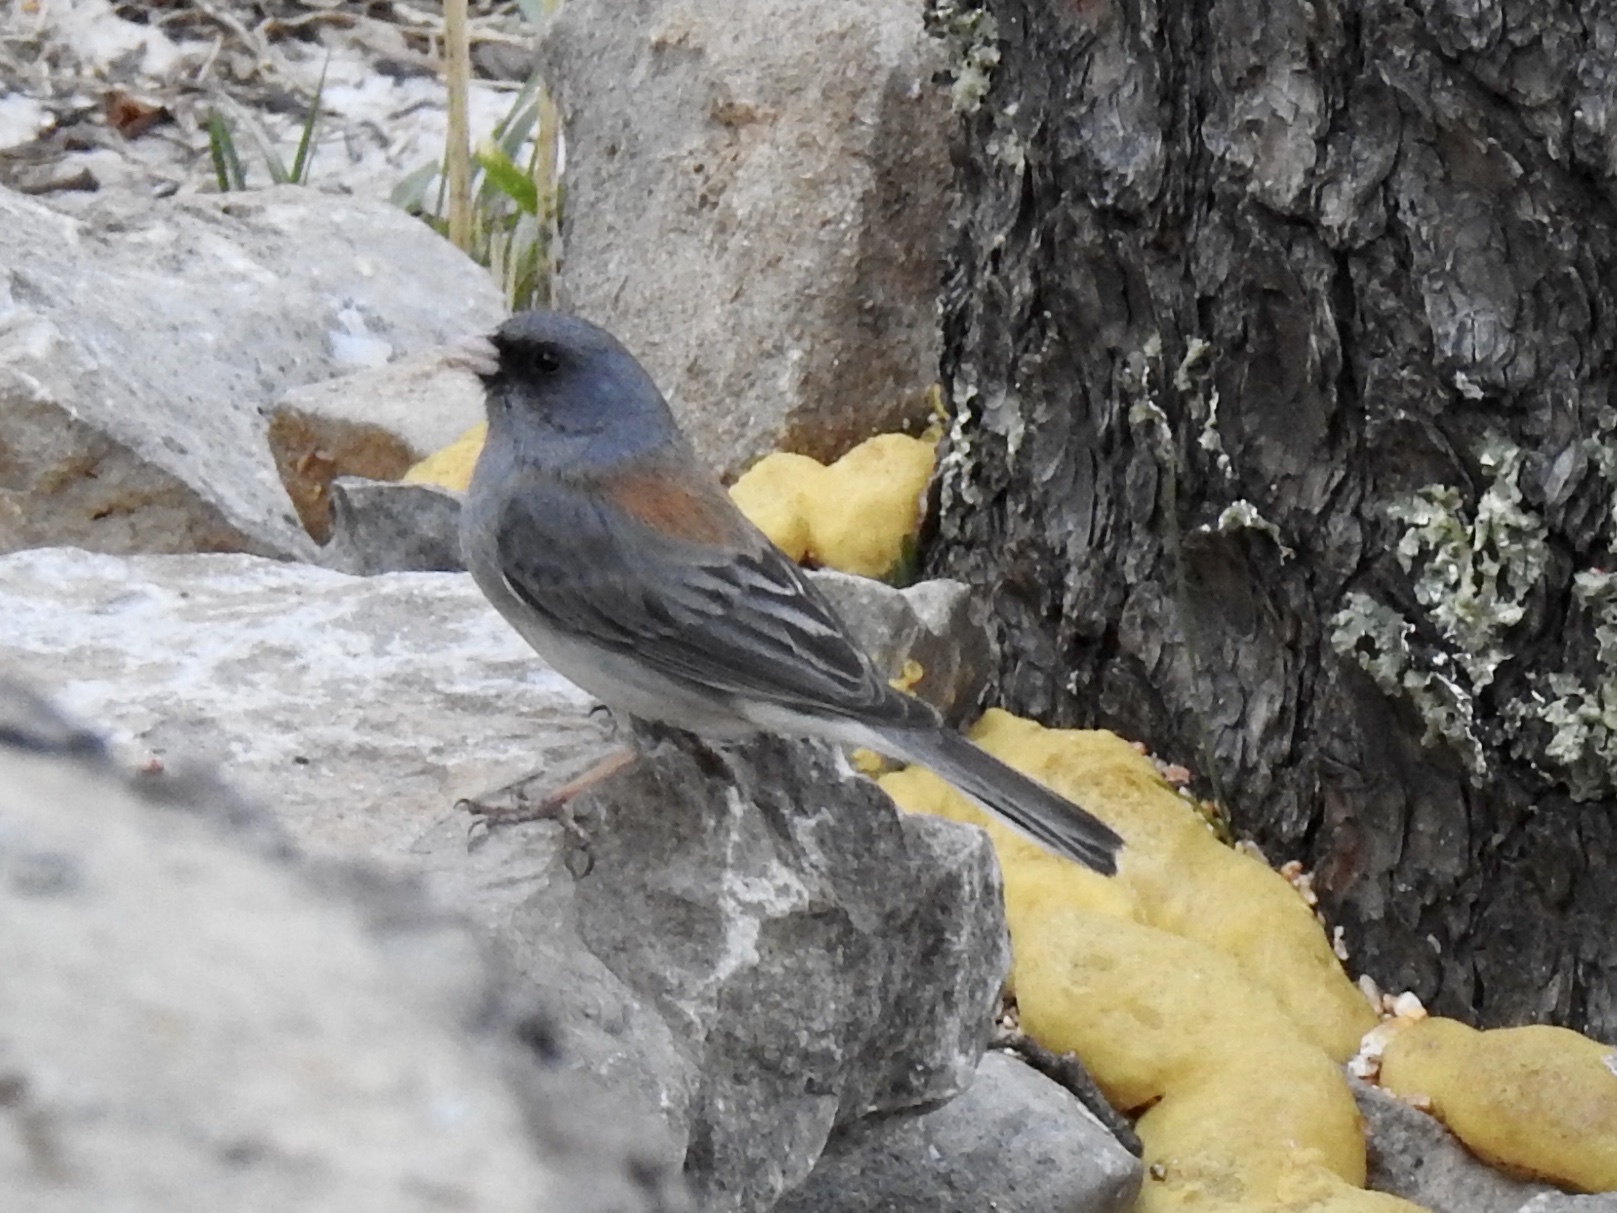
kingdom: Animalia
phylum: Chordata
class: Aves
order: Passeriformes
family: Passerellidae
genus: Junco
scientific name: Junco hyemalis
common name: Dark-eyed junco
